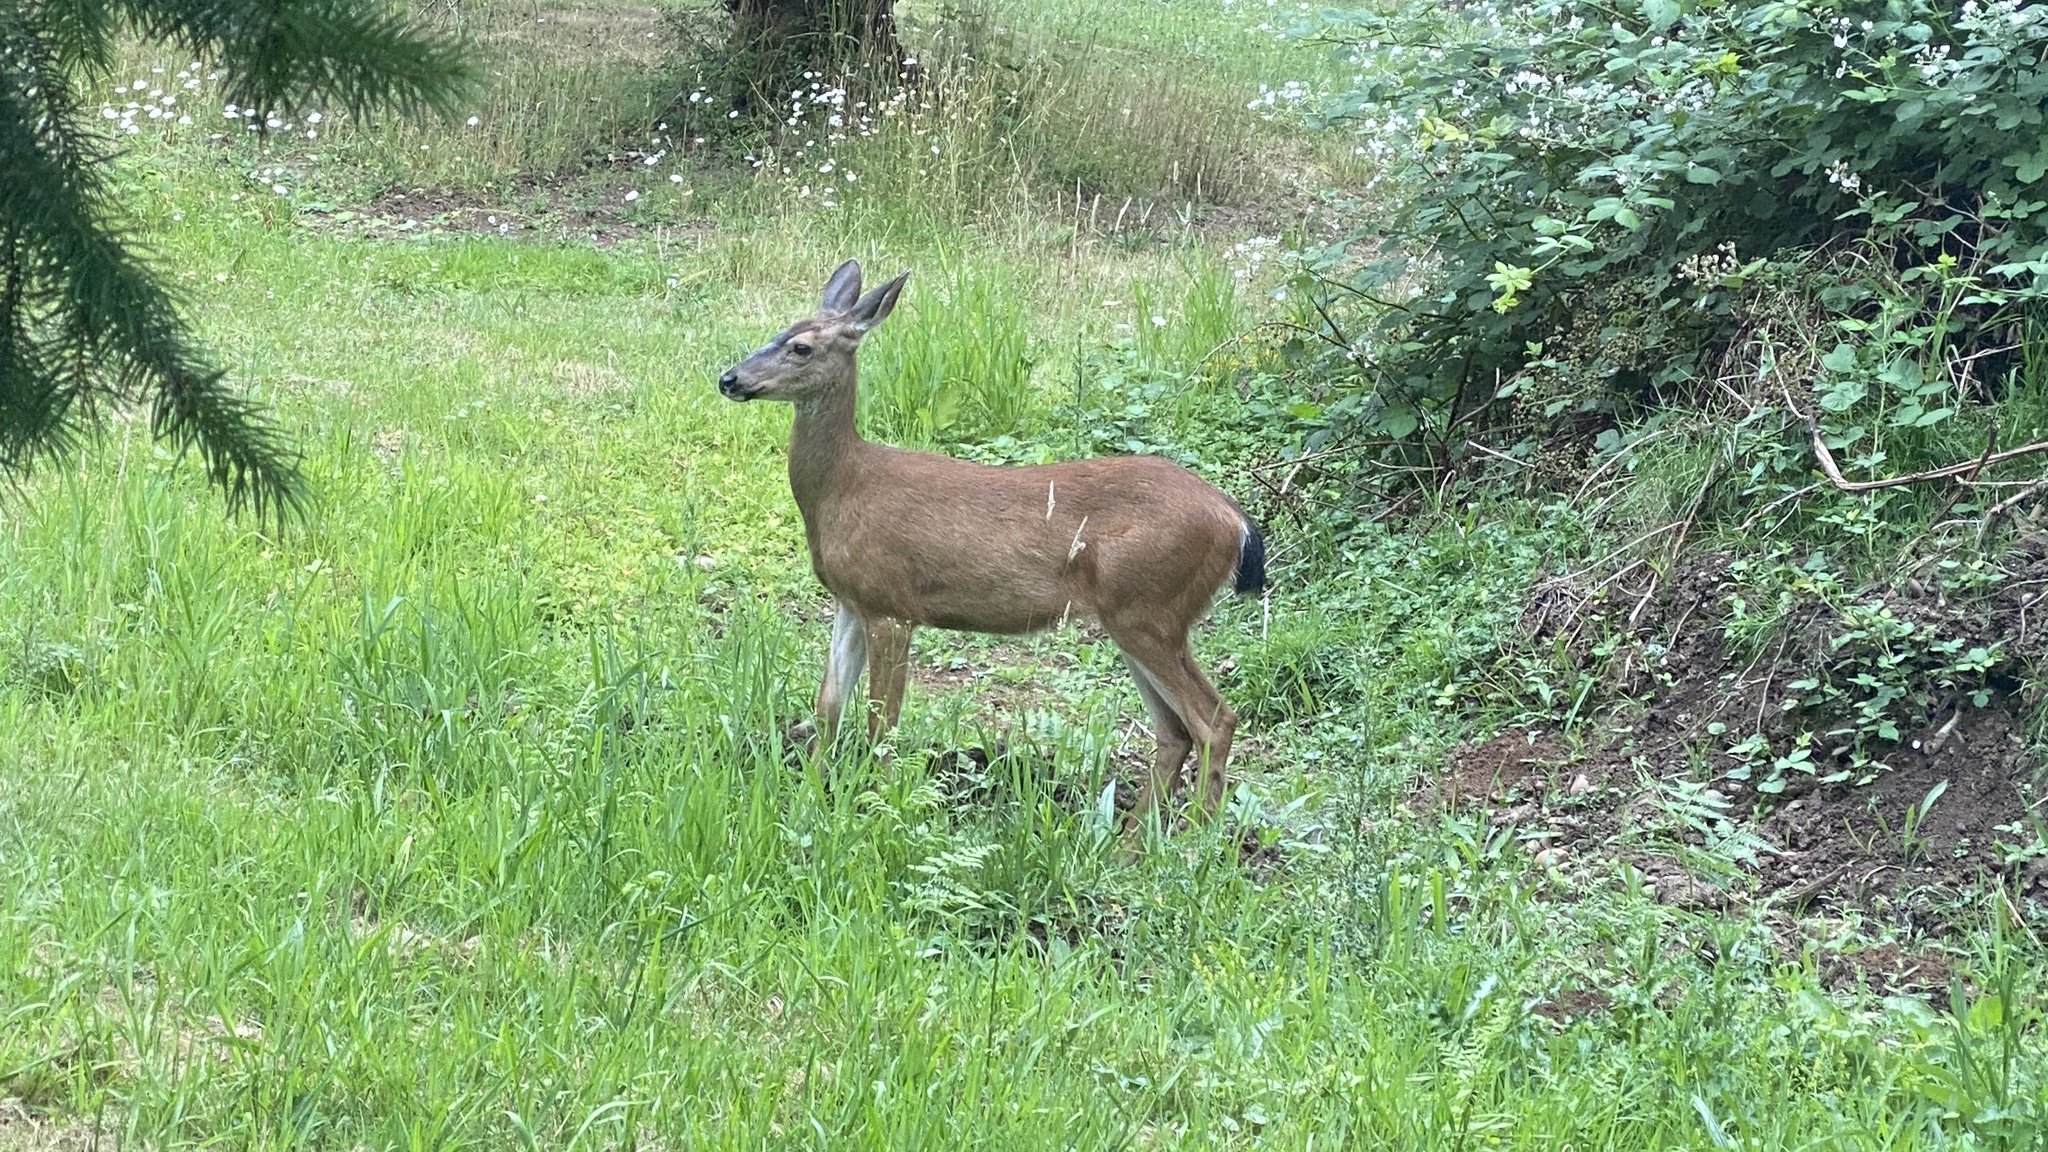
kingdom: Animalia
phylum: Chordata
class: Mammalia
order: Artiodactyla
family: Cervidae
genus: Odocoileus
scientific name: Odocoileus hemionus
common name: Mule deer
